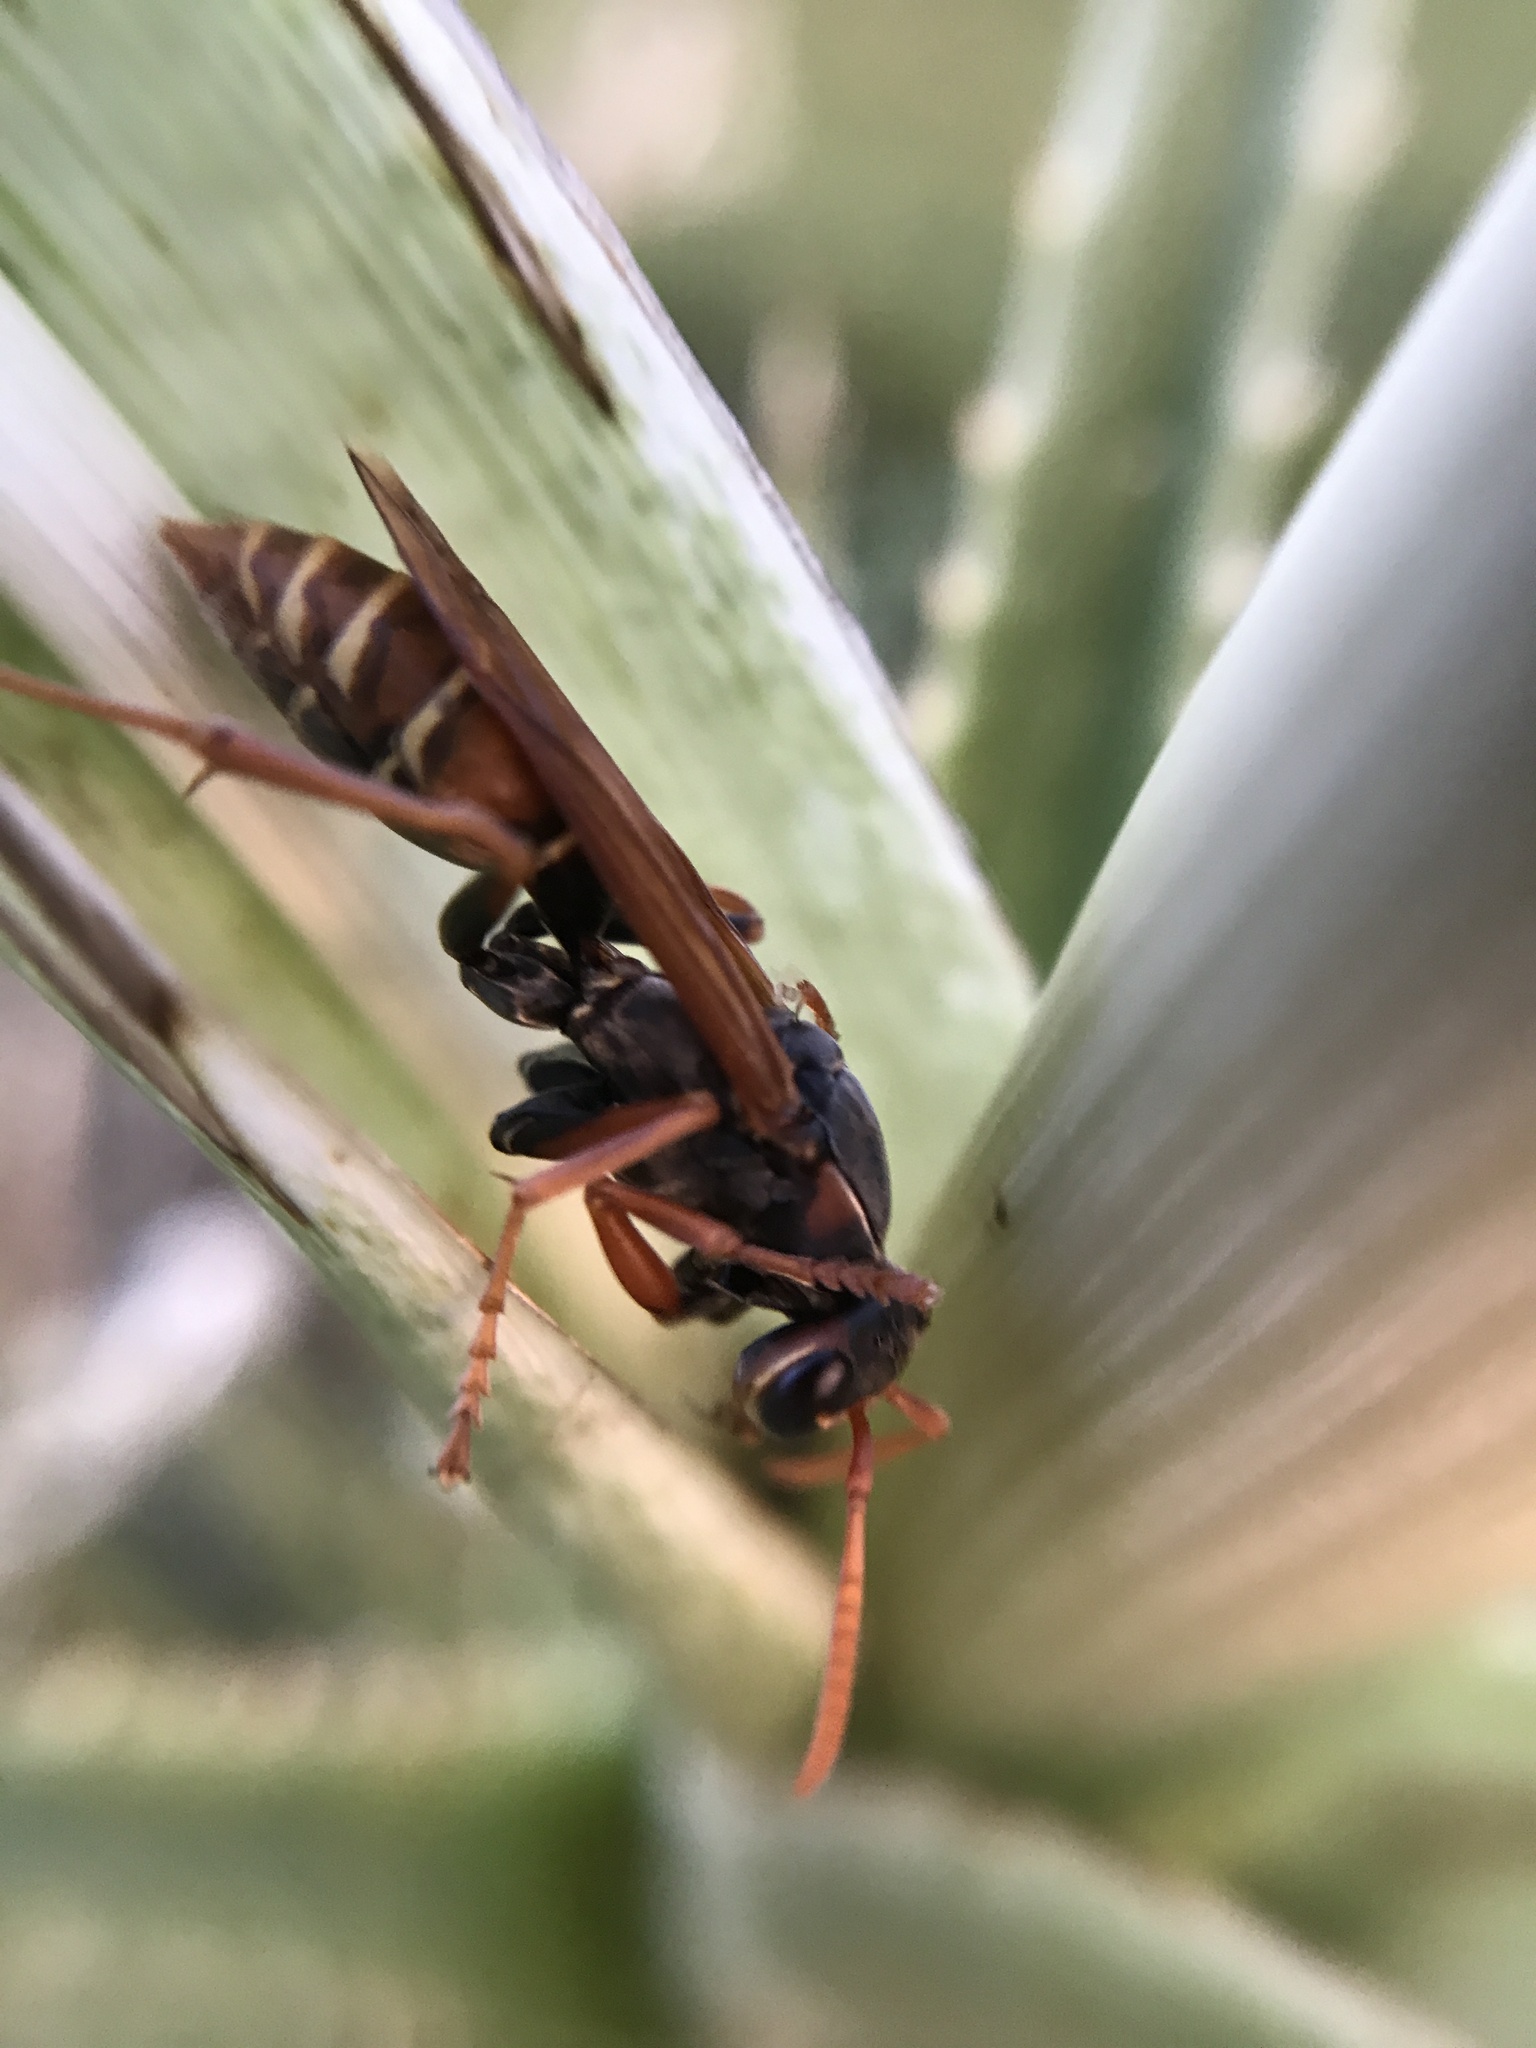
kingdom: Animalia
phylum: Arthropoda
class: Insecta
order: Hymenoptera
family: Eumenidae
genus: Polistes
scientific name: Polistes billardieri
